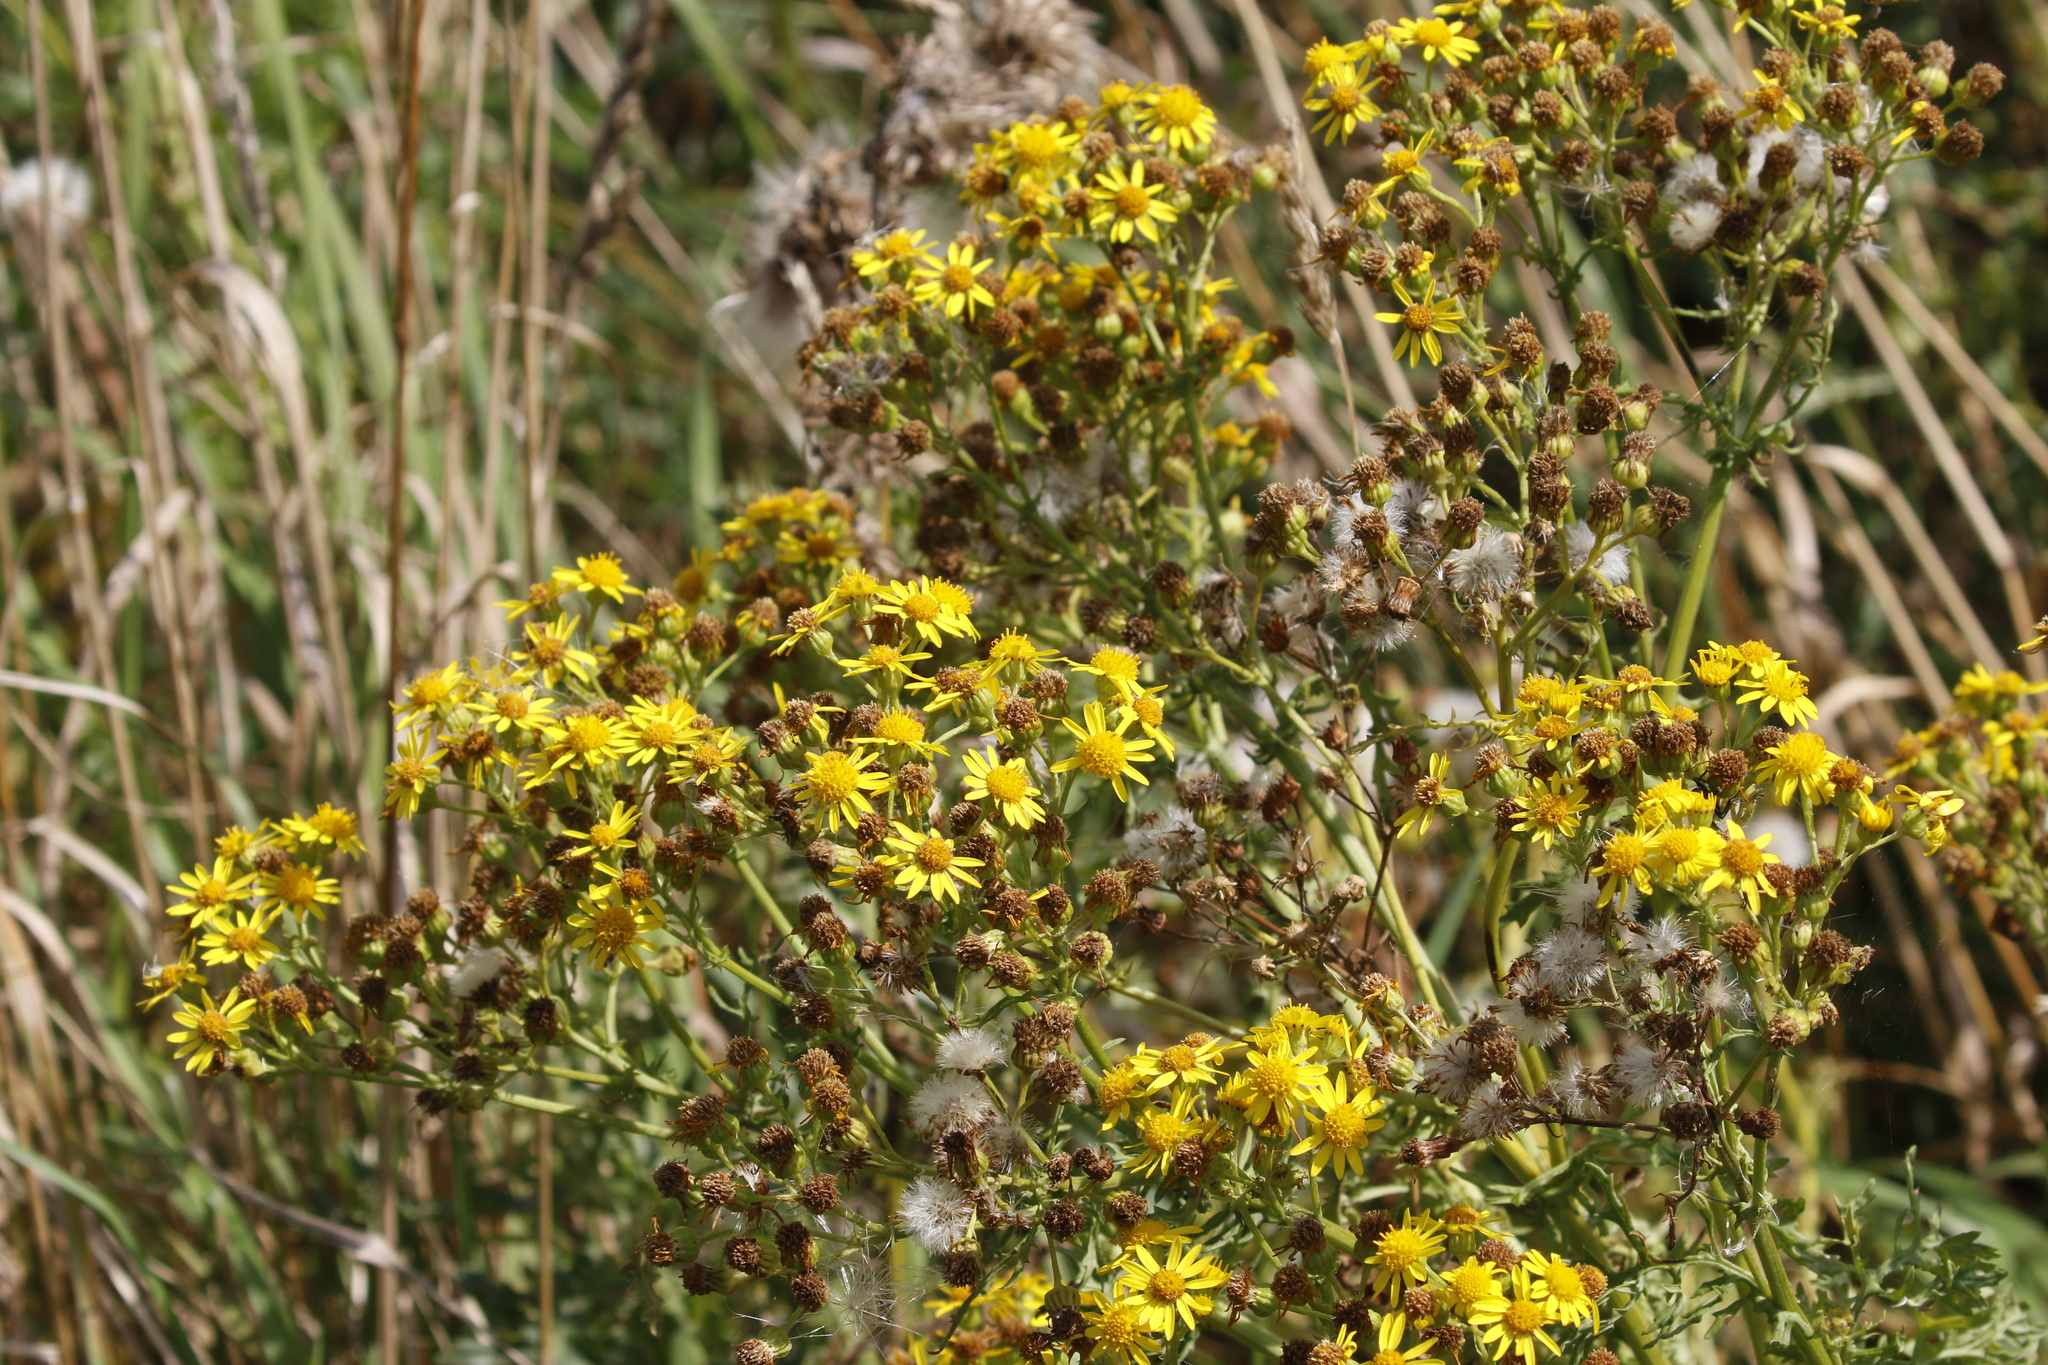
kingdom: Plantae
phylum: Tracheophyta
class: Magnoliopsida
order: Asterales
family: Asteraceae
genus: Jacobaea
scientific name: Jacobaea vulgaris
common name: Stinking willie
